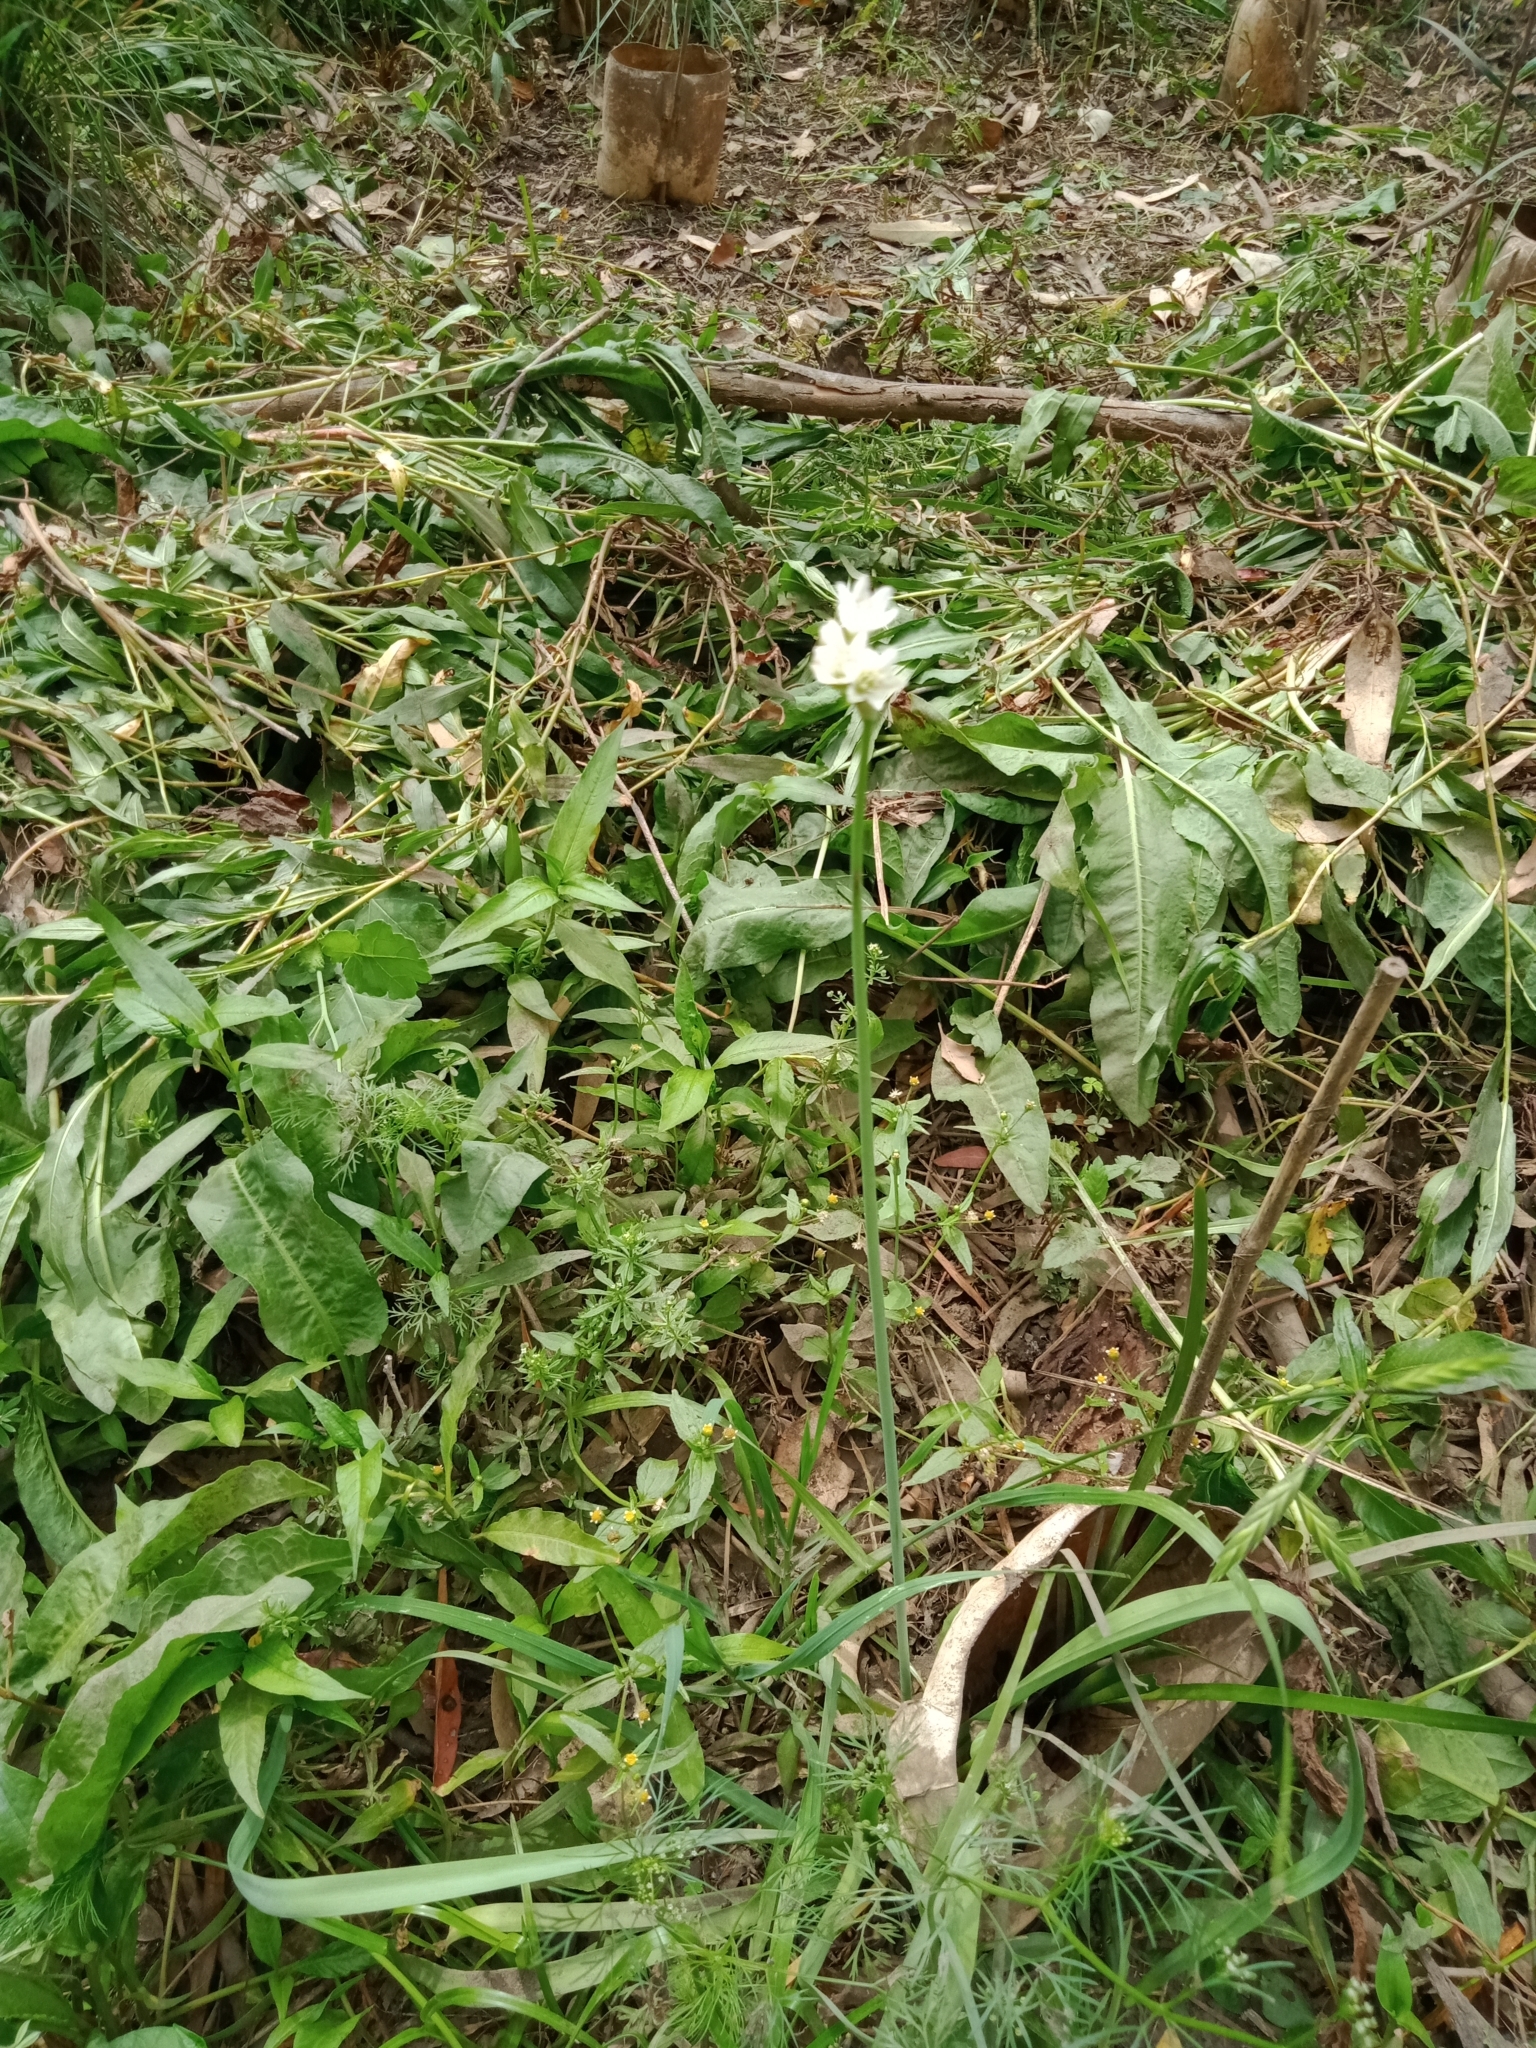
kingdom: Plantae
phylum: Tracheophyta
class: Liliopsida
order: Asparagales
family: Amaryllidaceae
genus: Nothoscordum
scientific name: Nothoscordum gracile
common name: Slender false garlic
